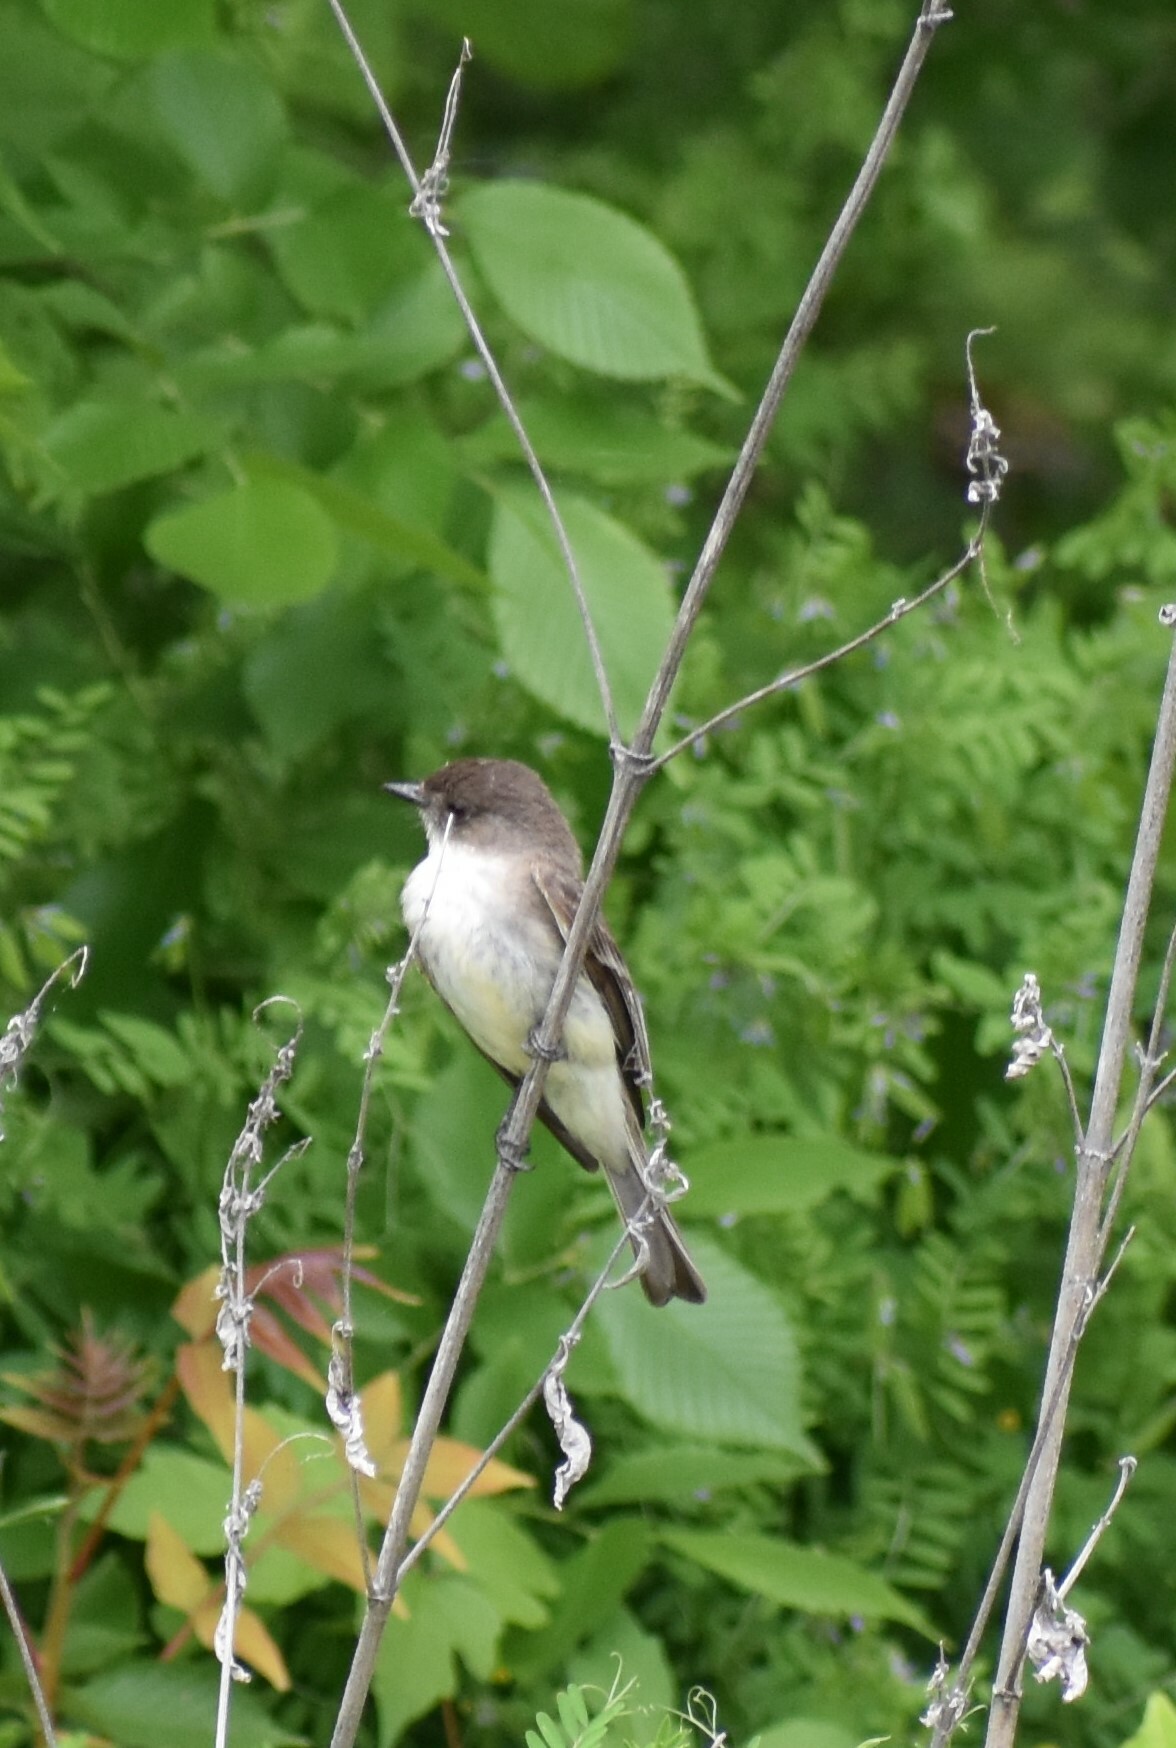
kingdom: Animalia
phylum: Chordata
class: Aves
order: Passeriformes
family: Tyrannidae
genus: Sayornis
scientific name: Sayornis phoebe
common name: Eastern phoebe
